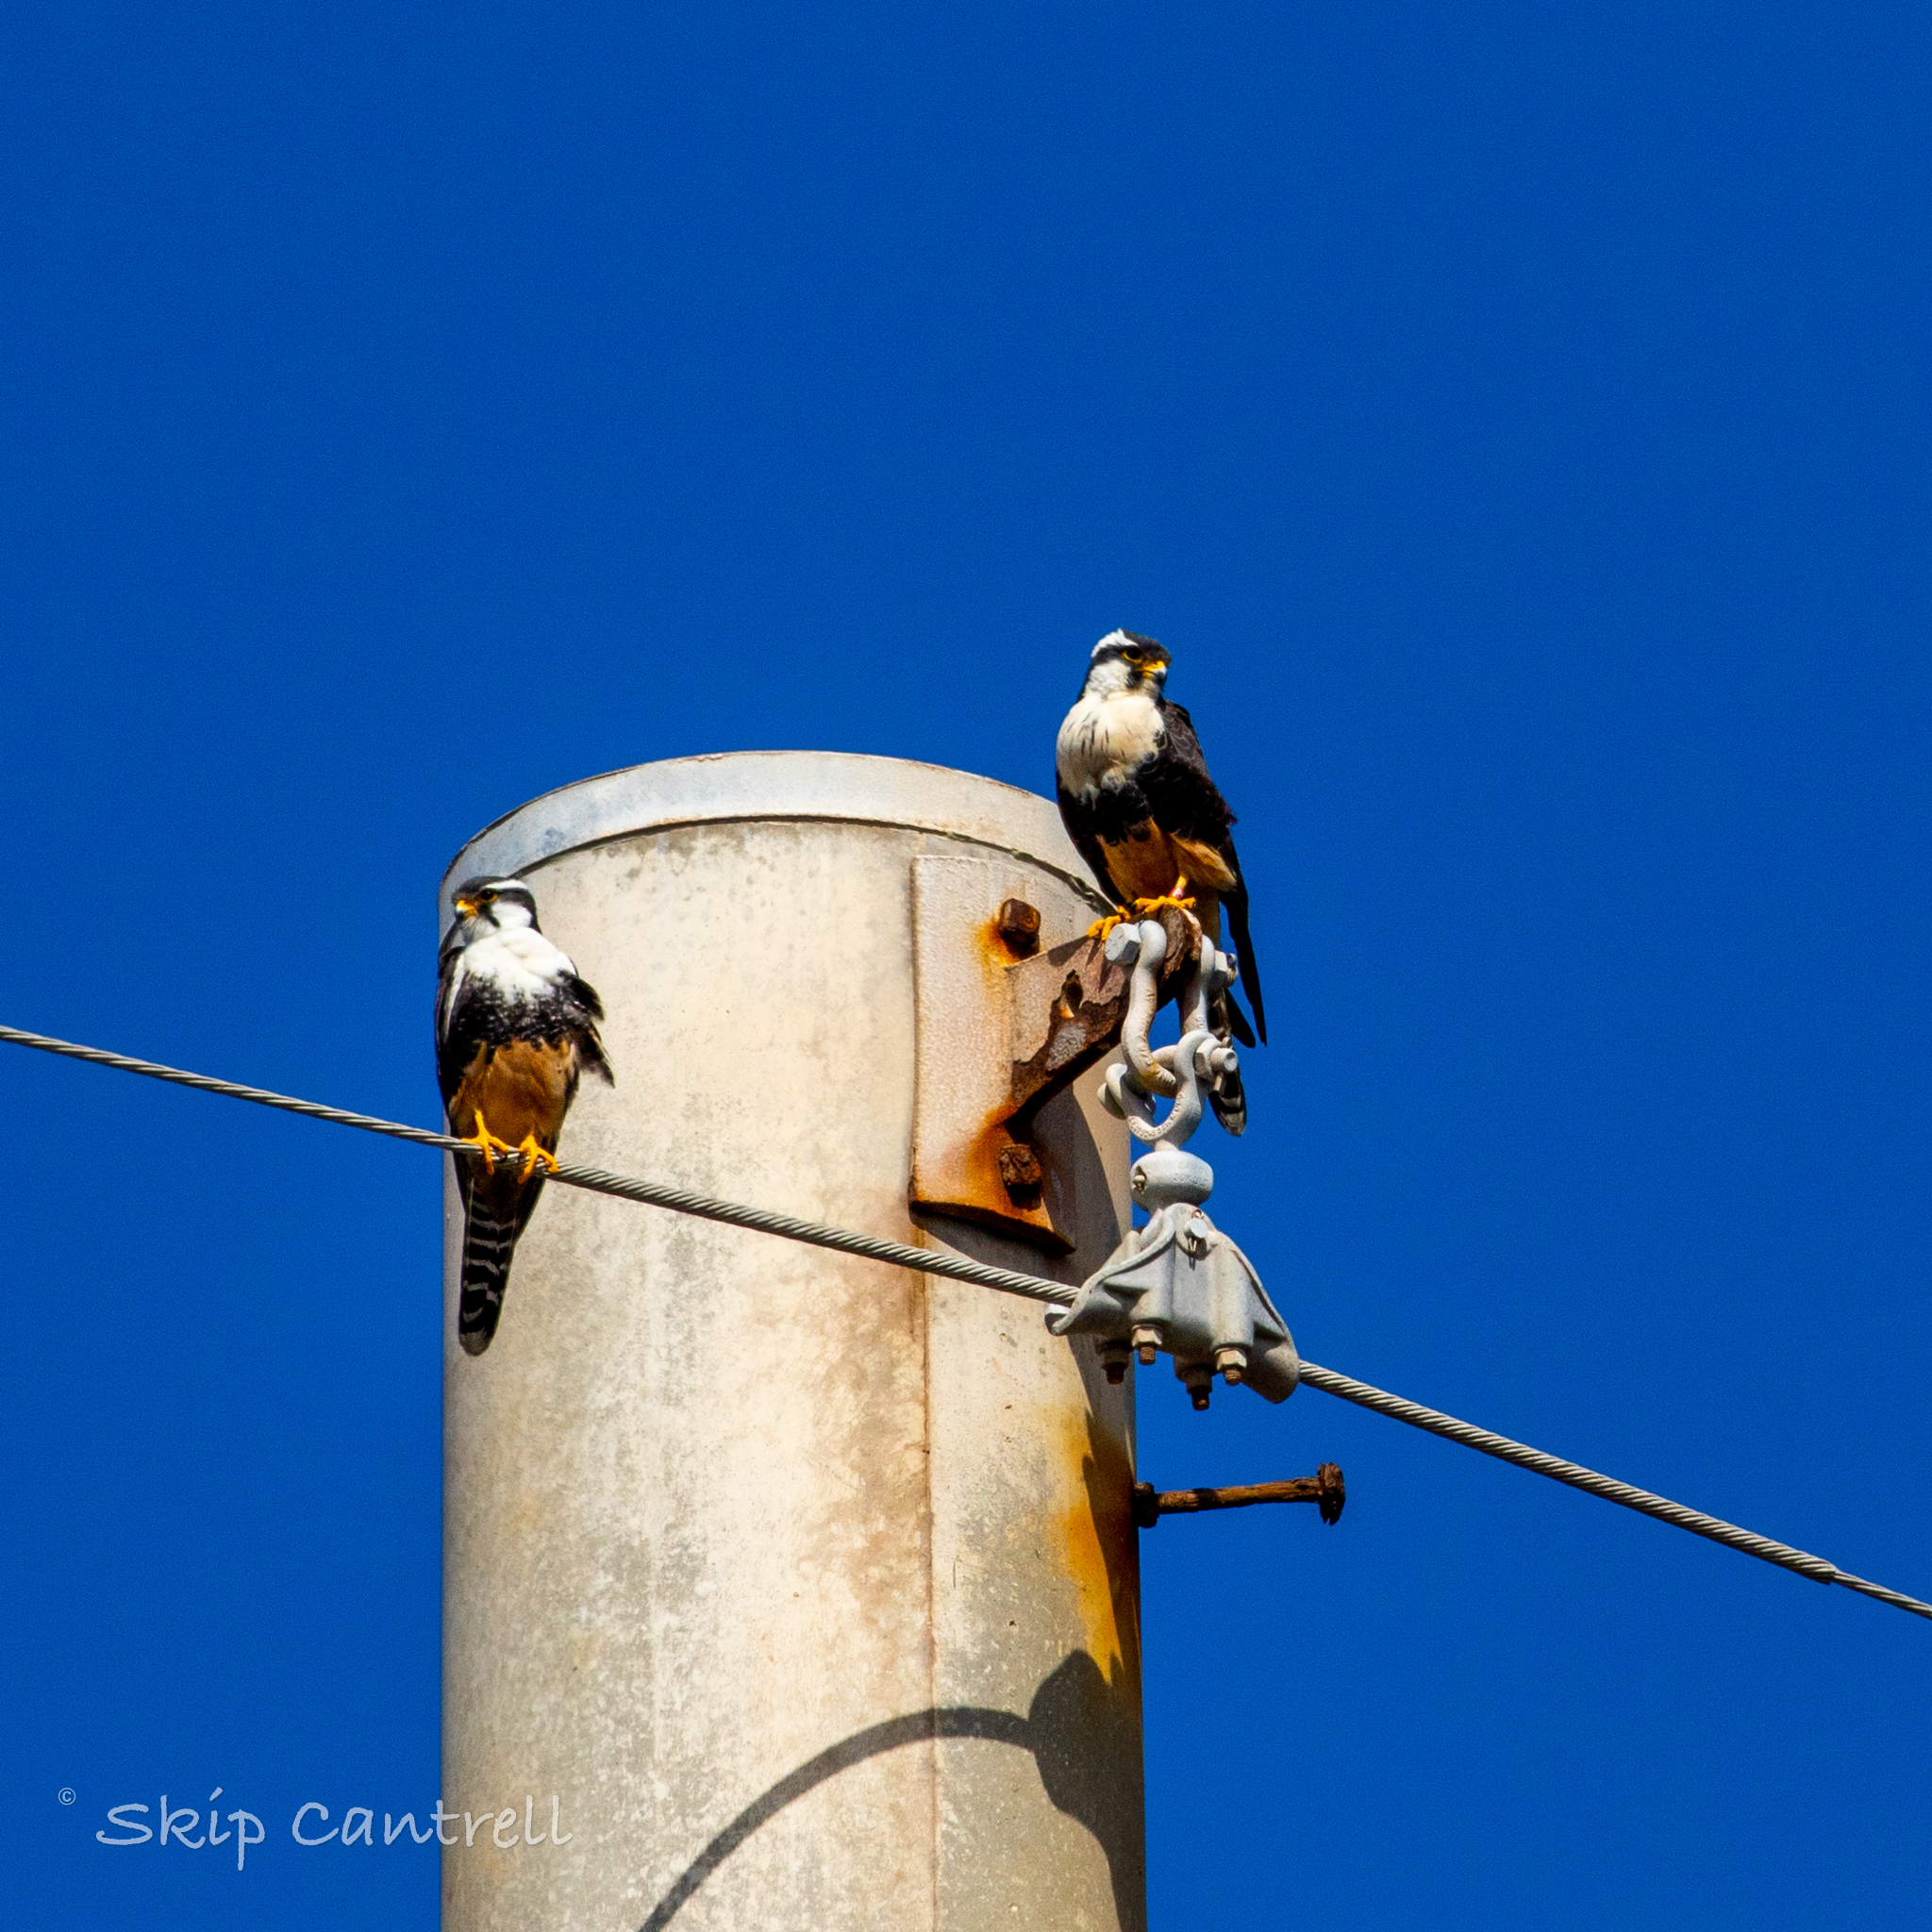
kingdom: Animalia
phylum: Chordata
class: Aves
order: Falconiformes
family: Falconidae
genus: Falco
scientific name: Falco femoralis
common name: Aplomado falcon
